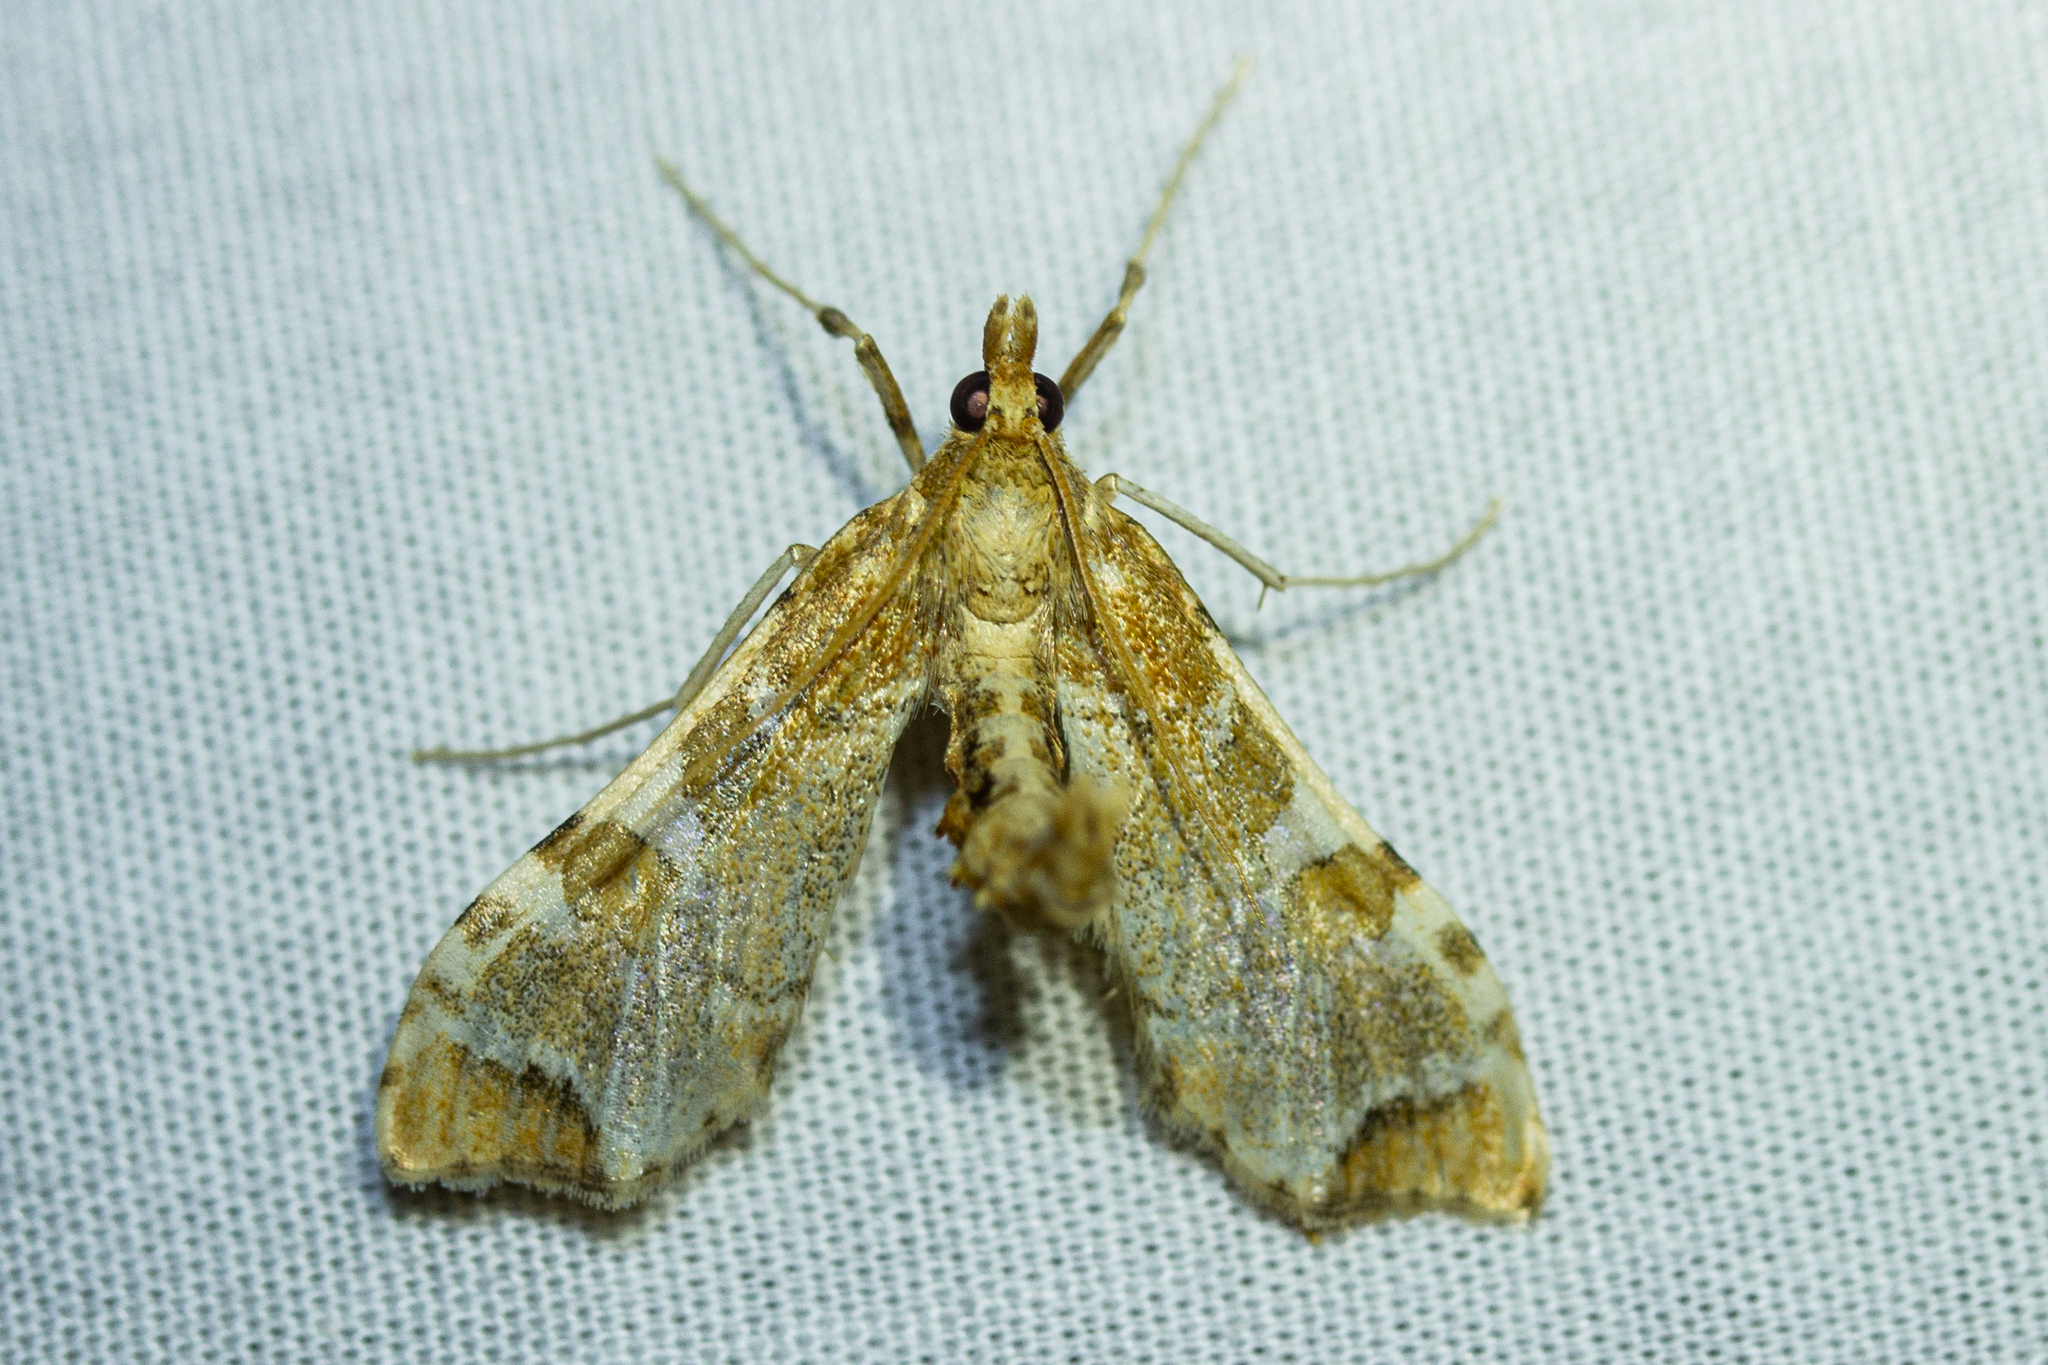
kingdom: Animalia
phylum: Arthropoda
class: Insecta
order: Lepidoptera
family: Crambidae
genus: Sceliodes
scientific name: Sceliodes cordalis
